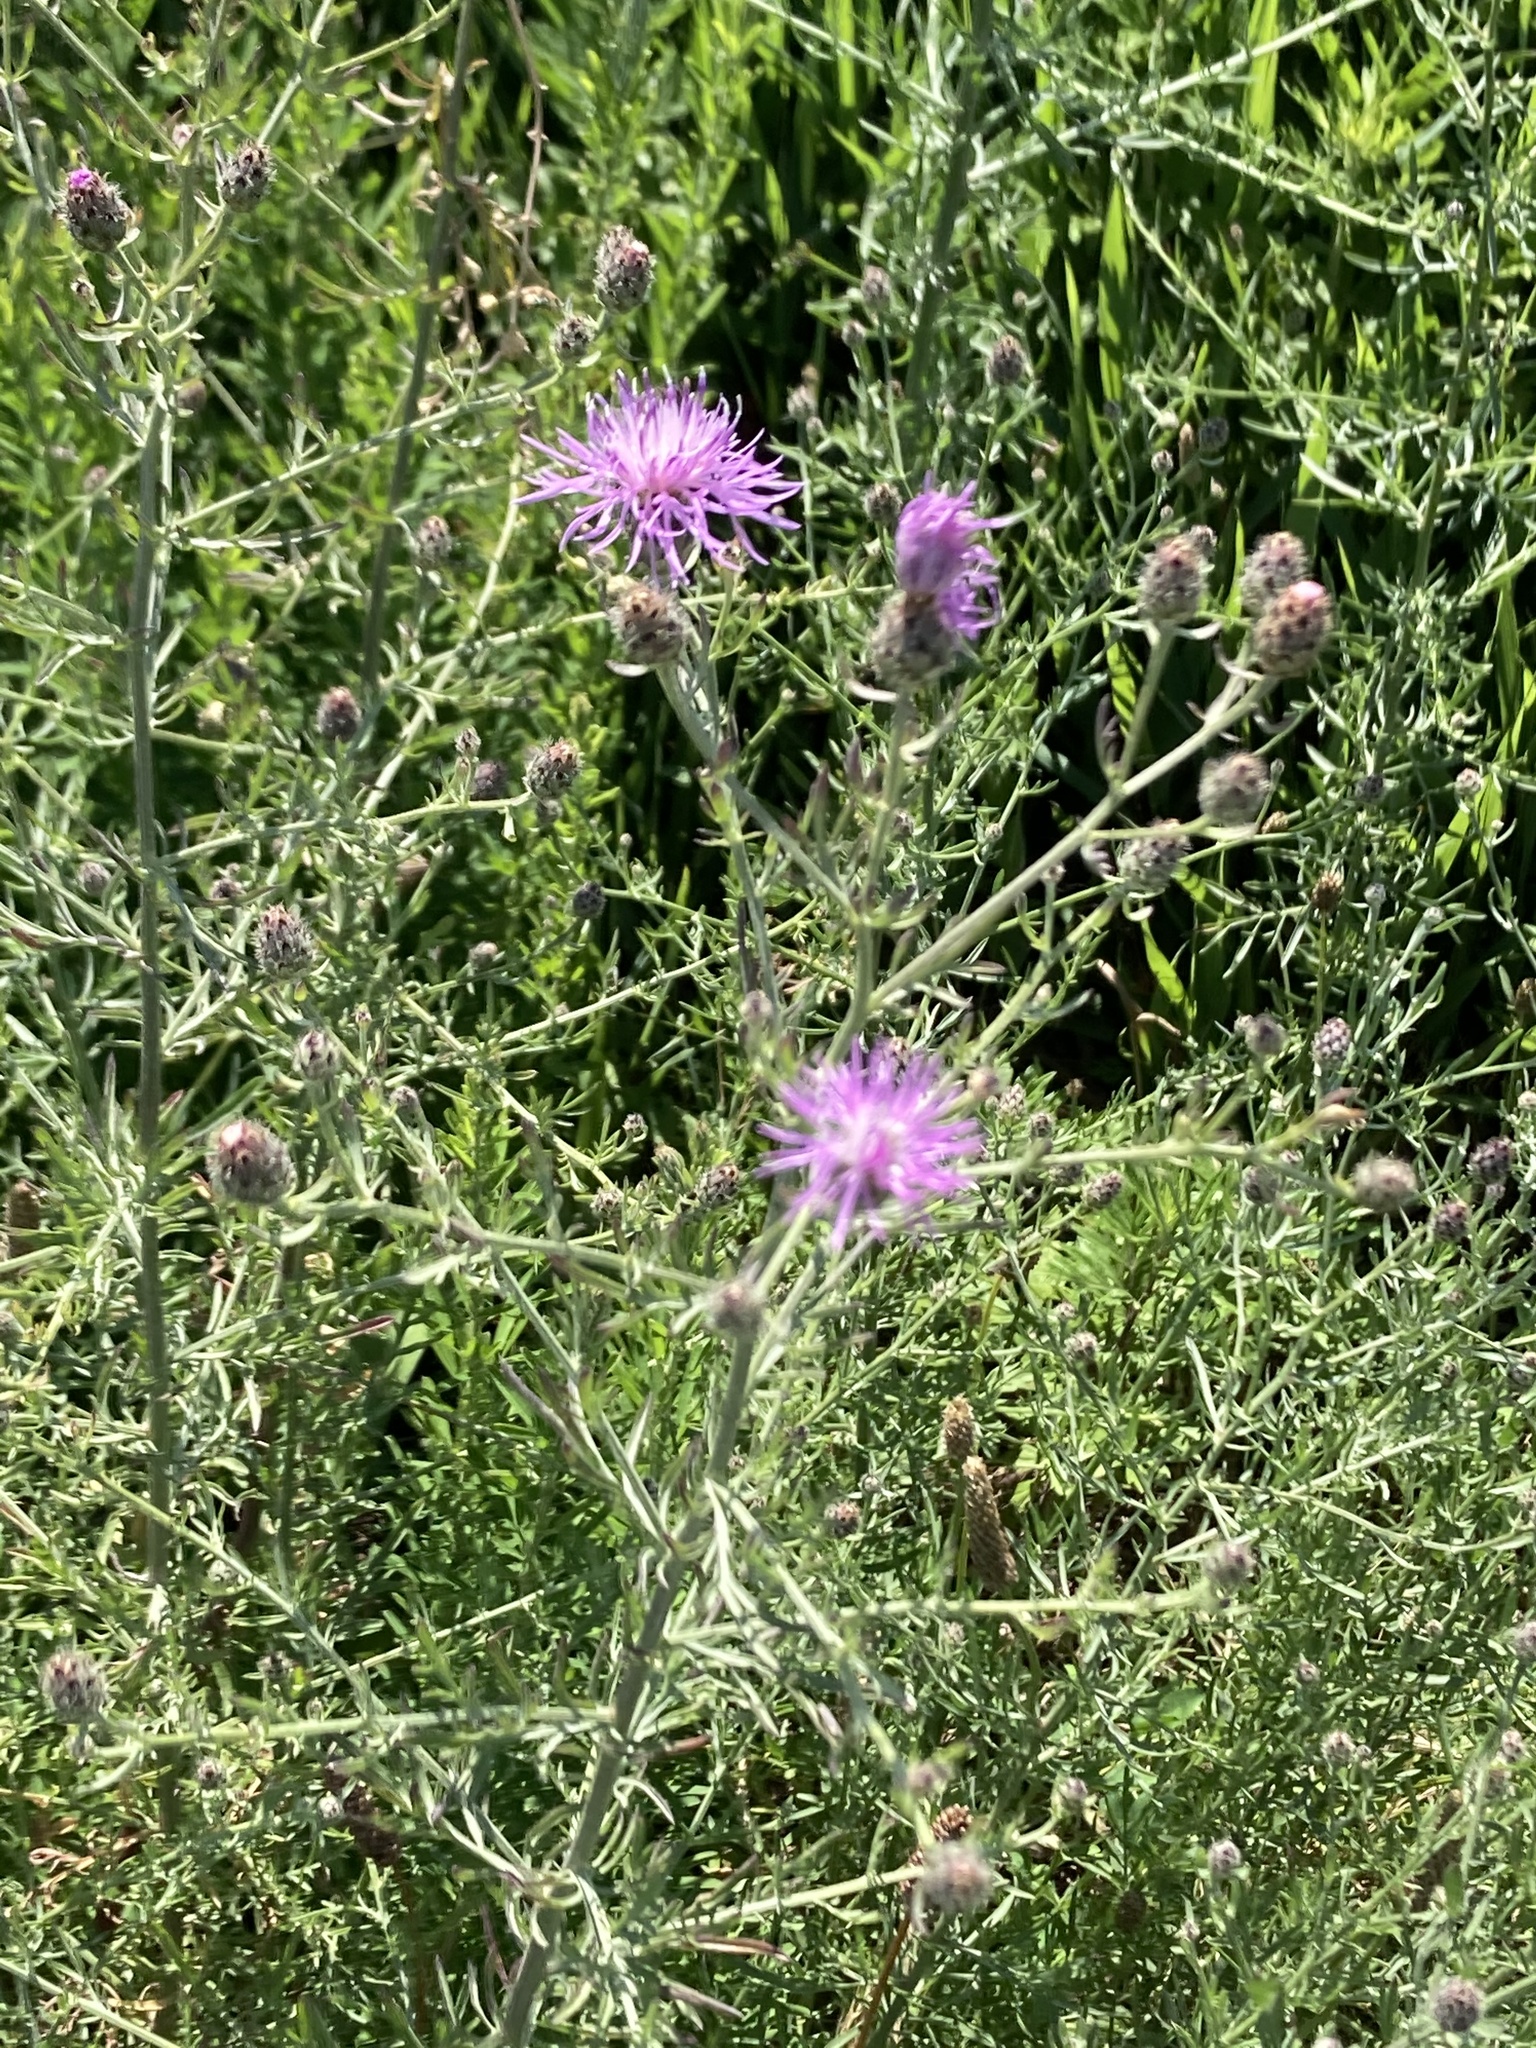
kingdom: Plantae
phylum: Tracheophyta
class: Magnoliopsida
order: Asterales
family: Asteraceae
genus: Centaurea
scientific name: Centaurea stoebe
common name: Spotted knapweed
